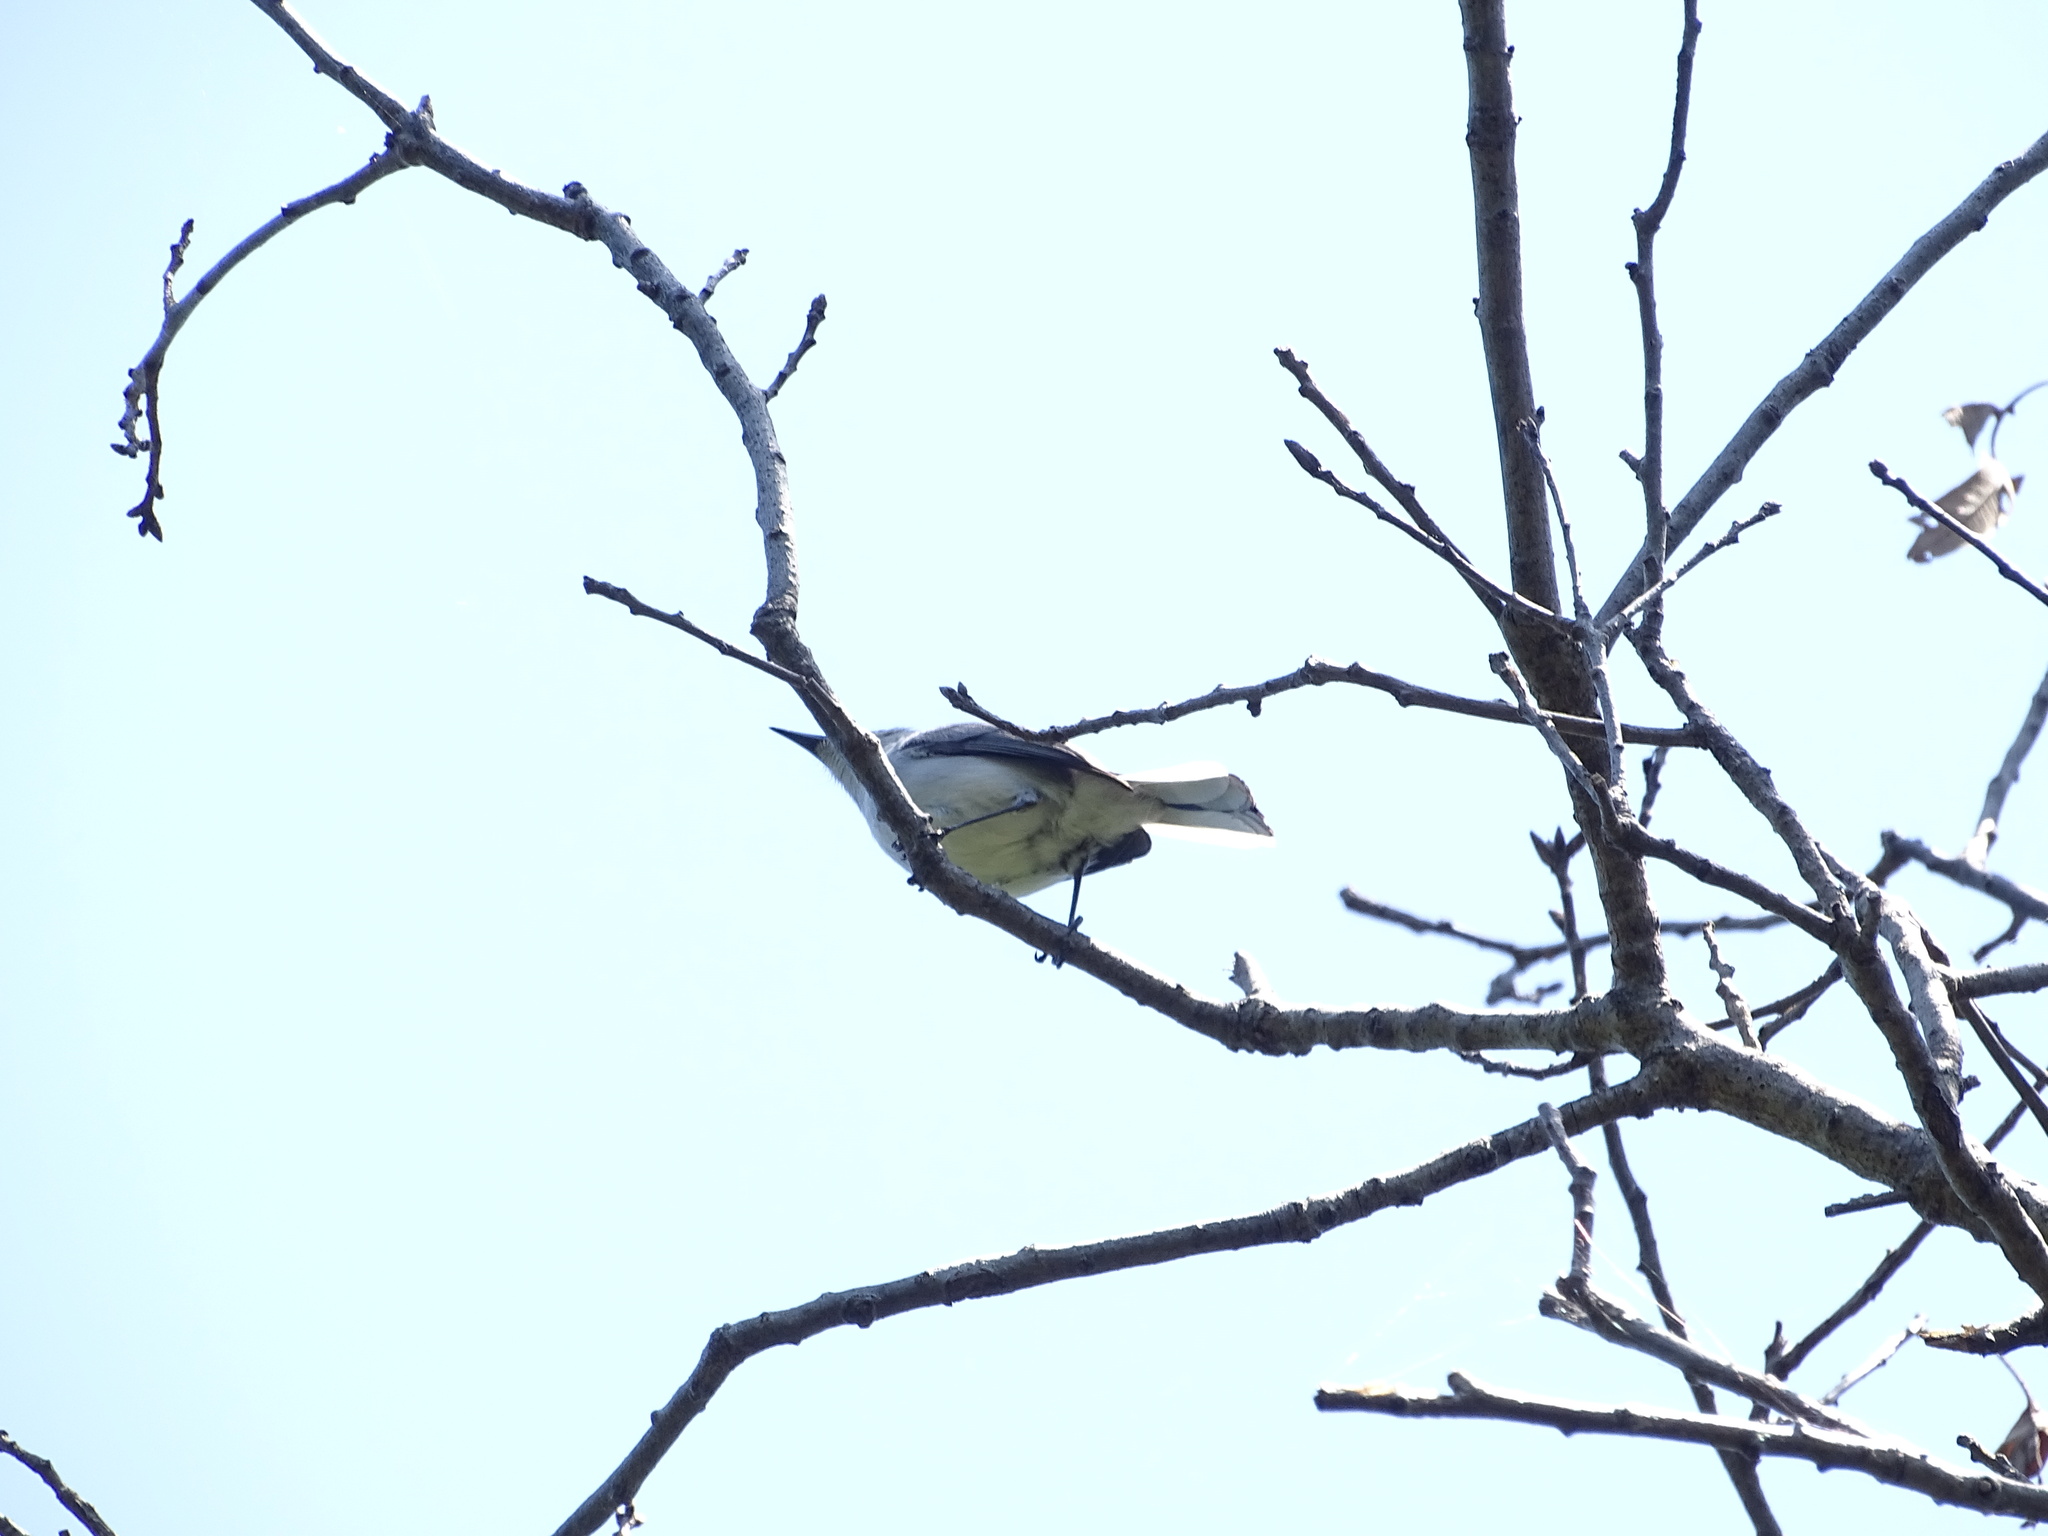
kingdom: Animalia
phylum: Chordata
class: Aves
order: Passeriformes
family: Polioptilidae
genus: Polioptila
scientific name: Polioptila caerulea
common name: Blue-gray gnatcatcher
